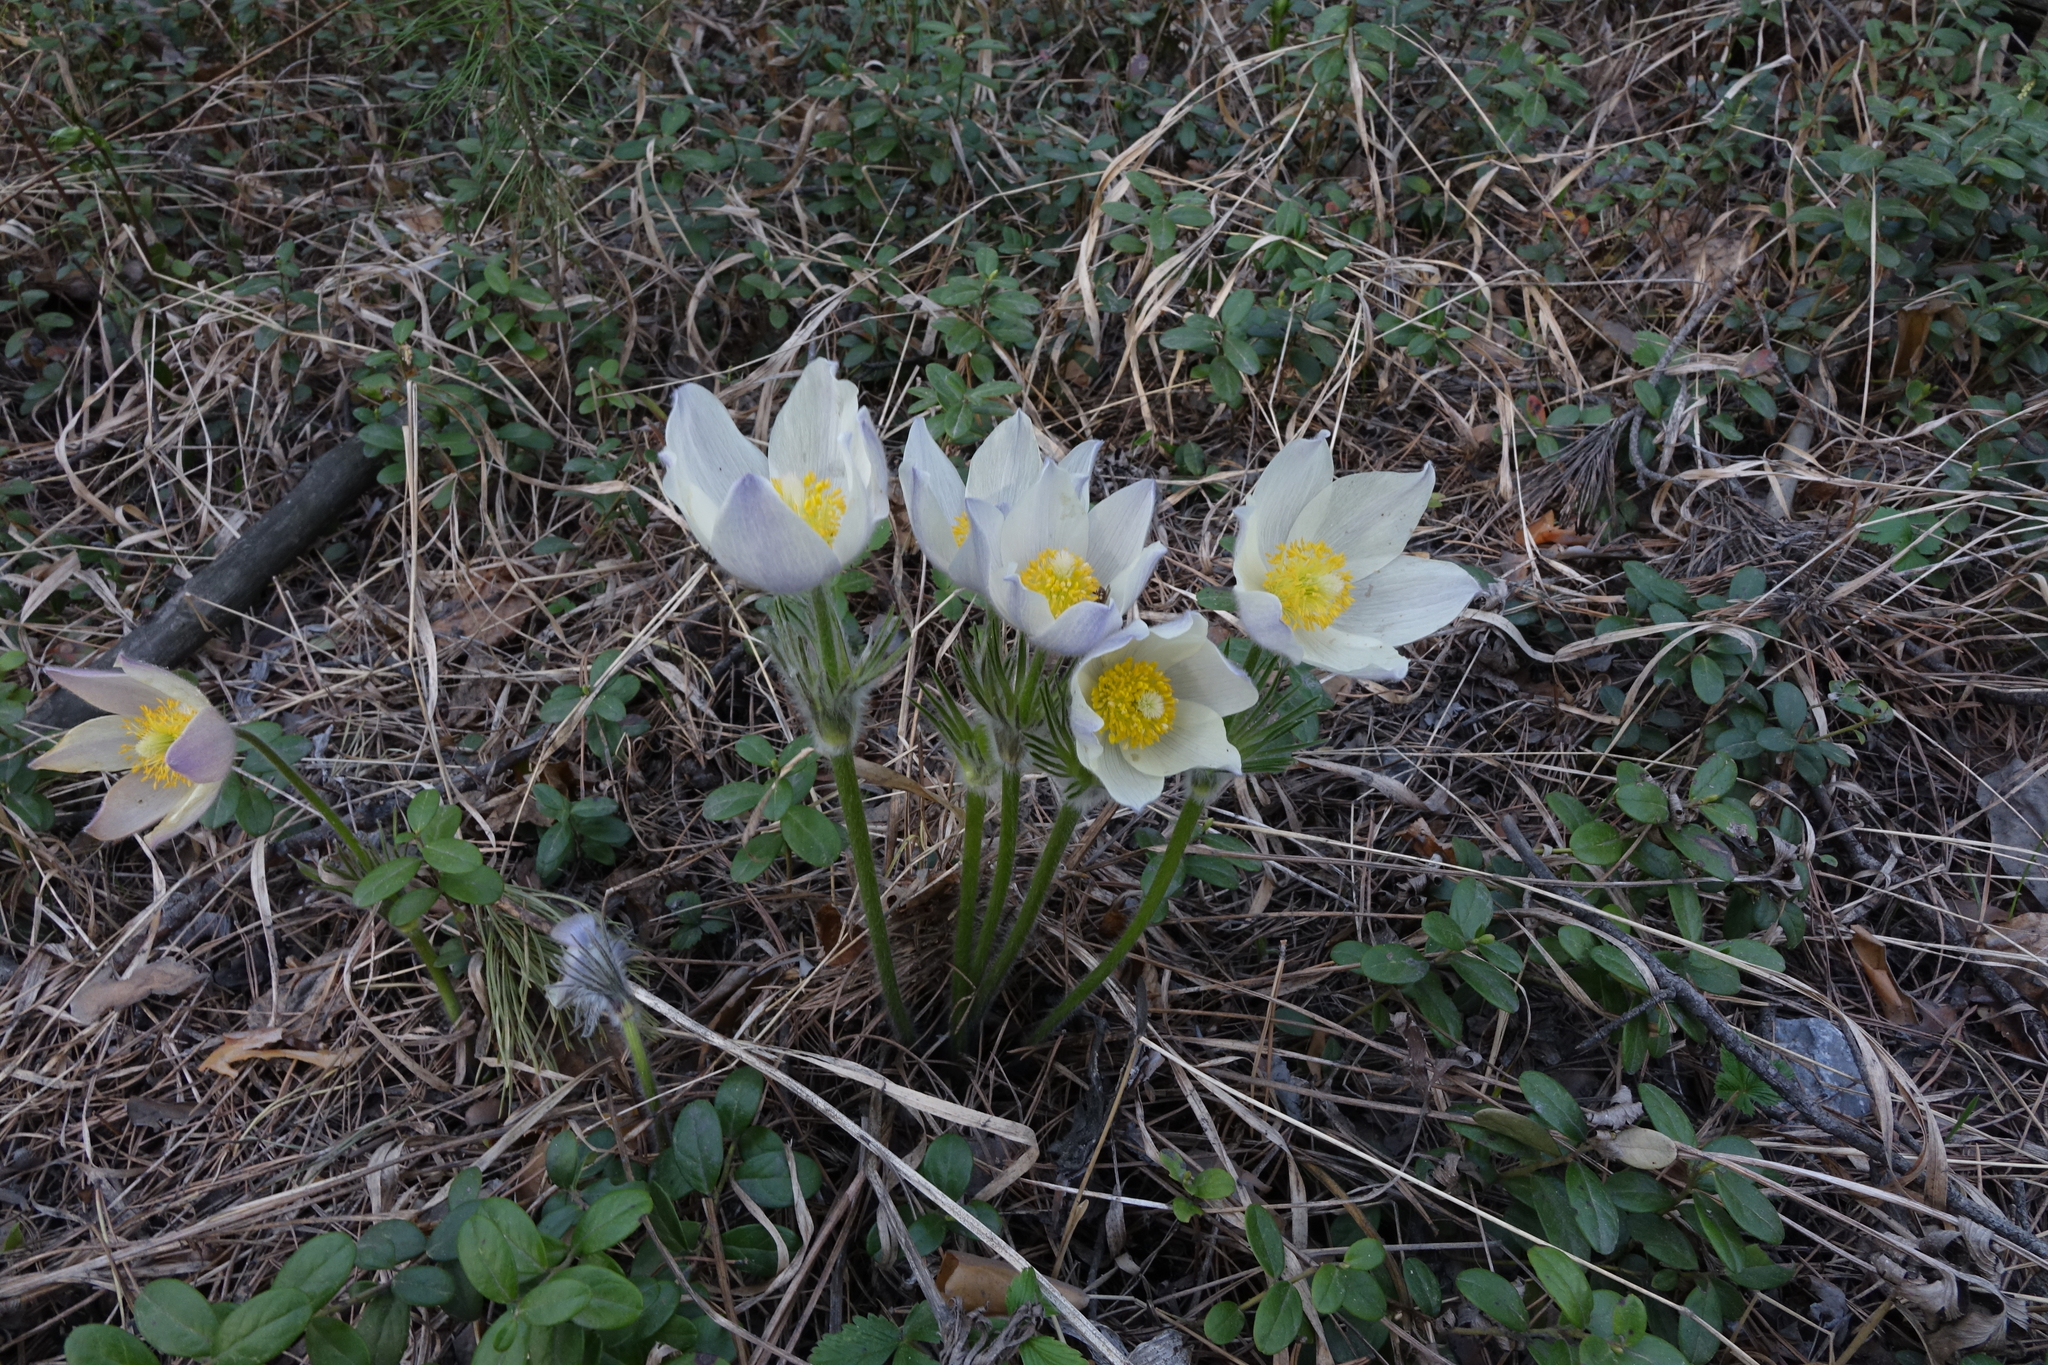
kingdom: Plantae
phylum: Tracheophyta
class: Magnoliopsida
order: Ranunculales
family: Ranunculaceae
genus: Pulsatilla
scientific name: Pulsatilla patens
